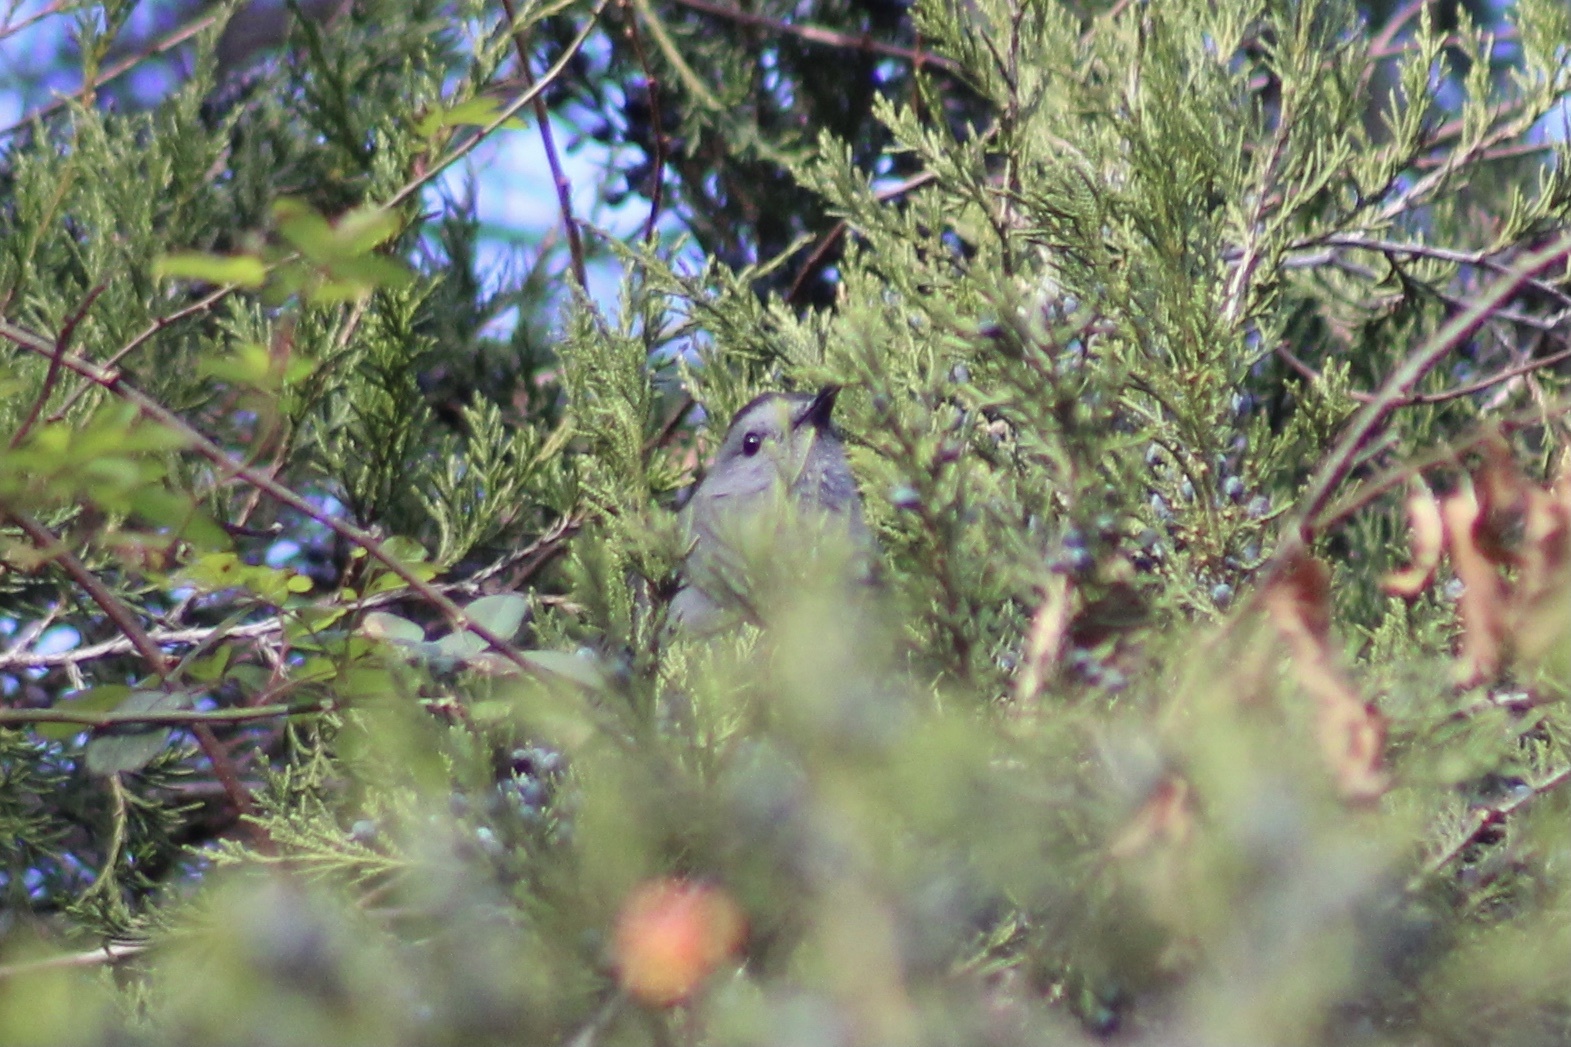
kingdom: Animalia
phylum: Chordata
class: Aves
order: Passeriformes
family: Mimidae
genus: Dumetella
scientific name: Dumetella carolinensis
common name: Gray catbird
